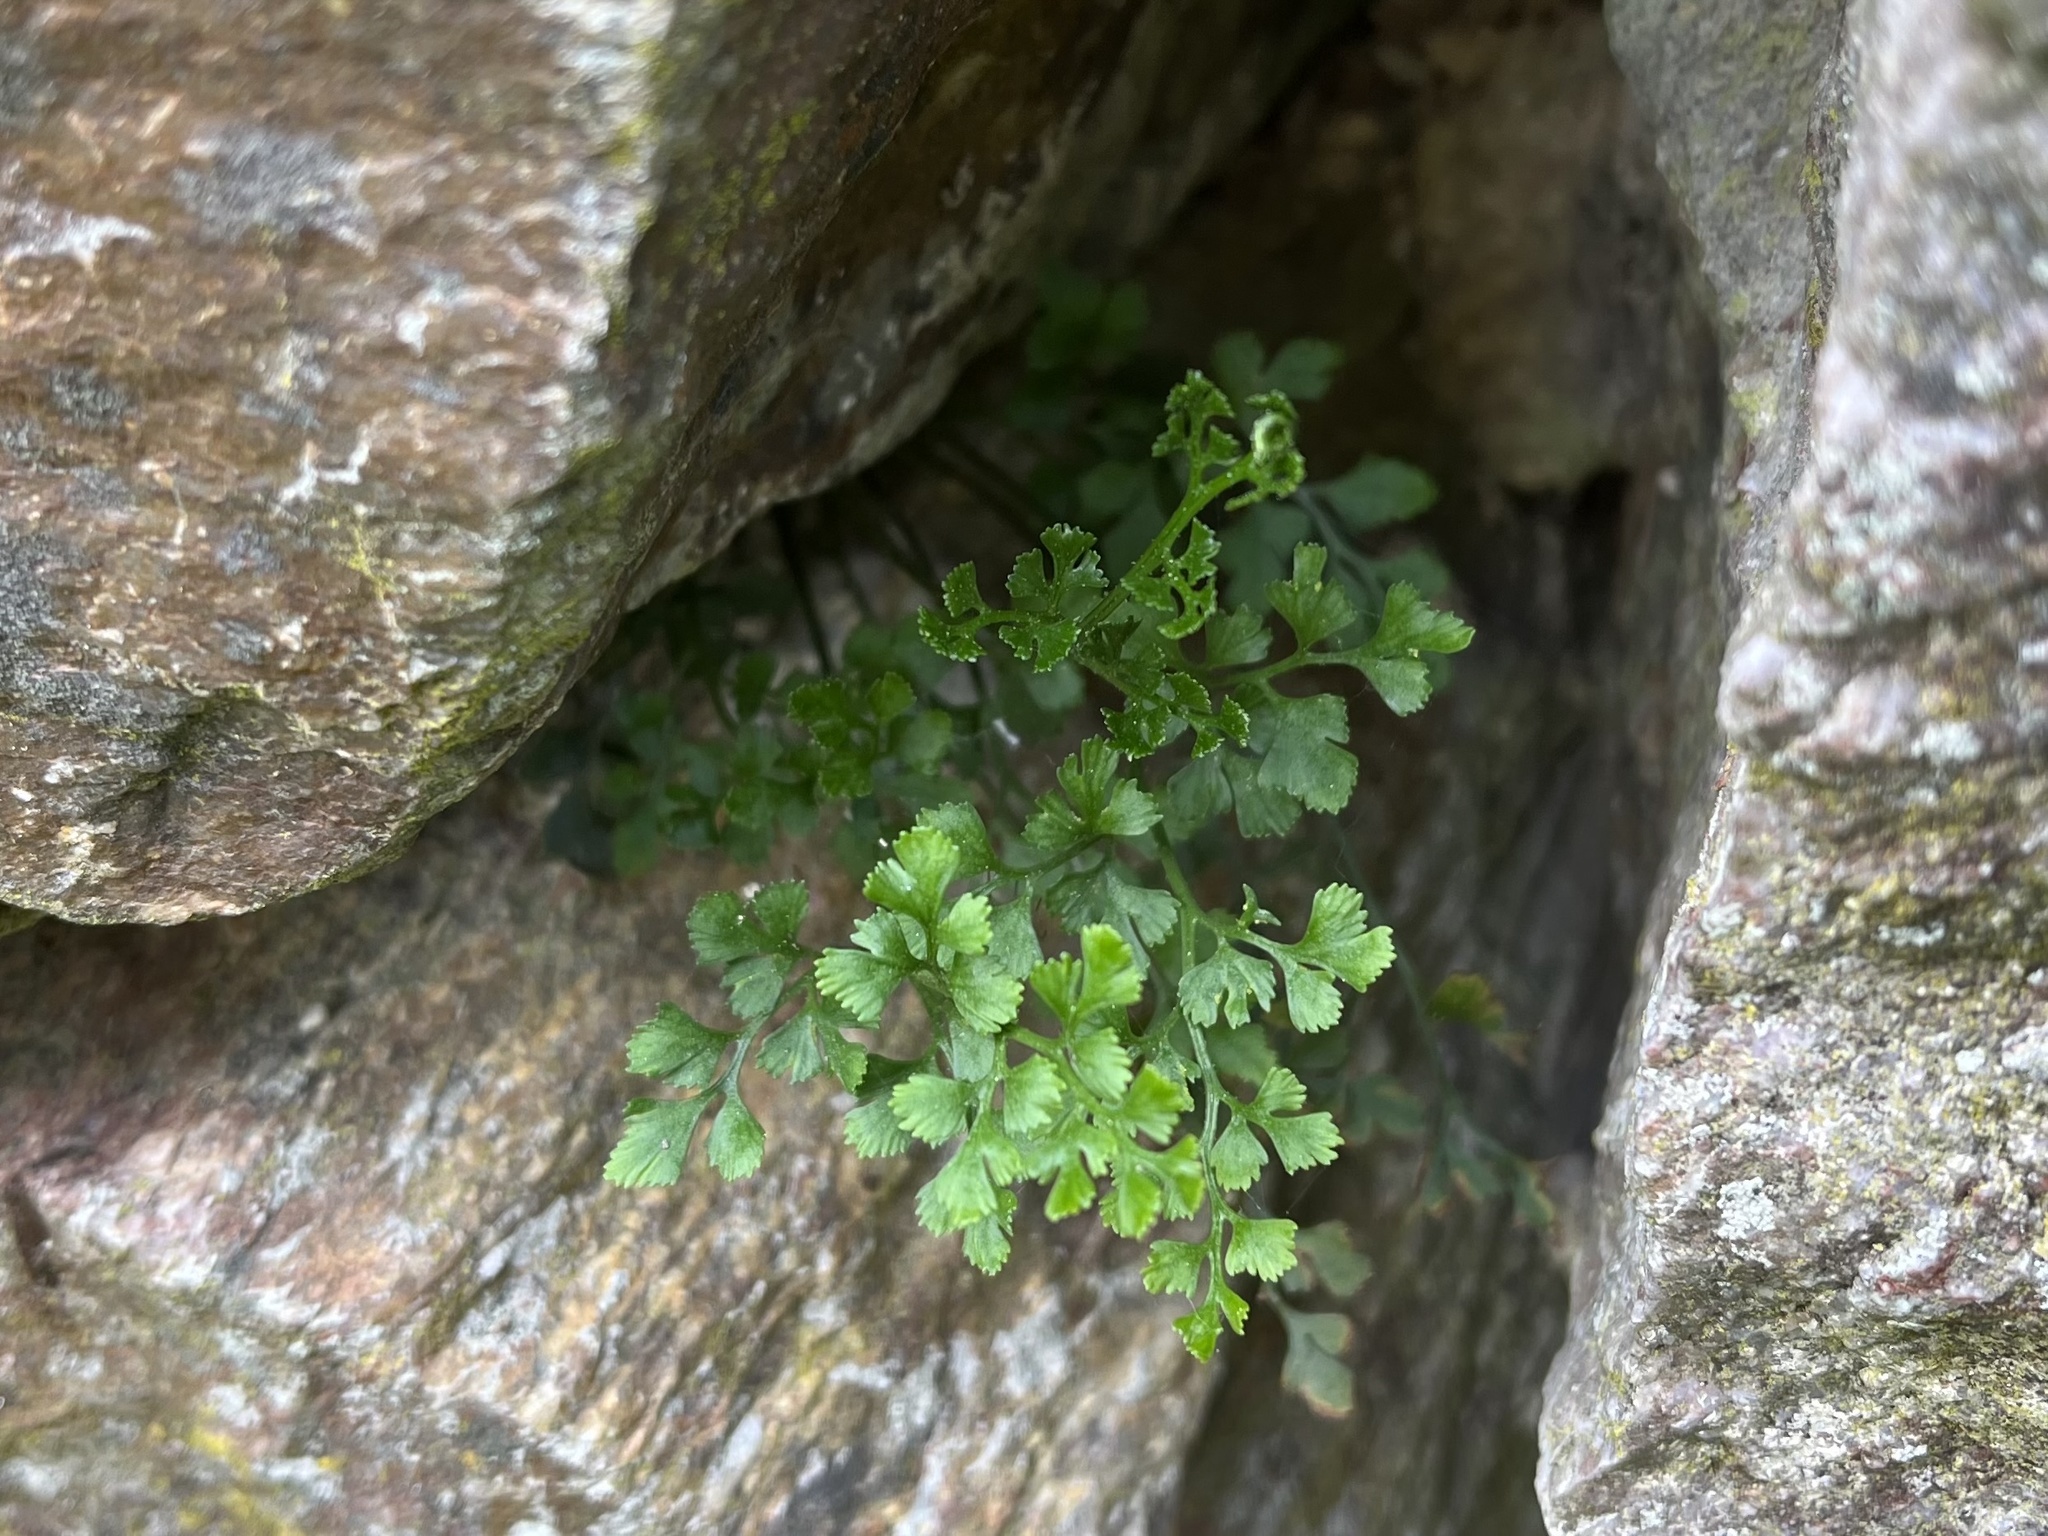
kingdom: Plantae
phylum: Tracheophyta
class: Polypodiopsida
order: Polypodiales
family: Aspleniaceae
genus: Asplenium
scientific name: Asplenium ruta-muraria
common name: Wall-rue
